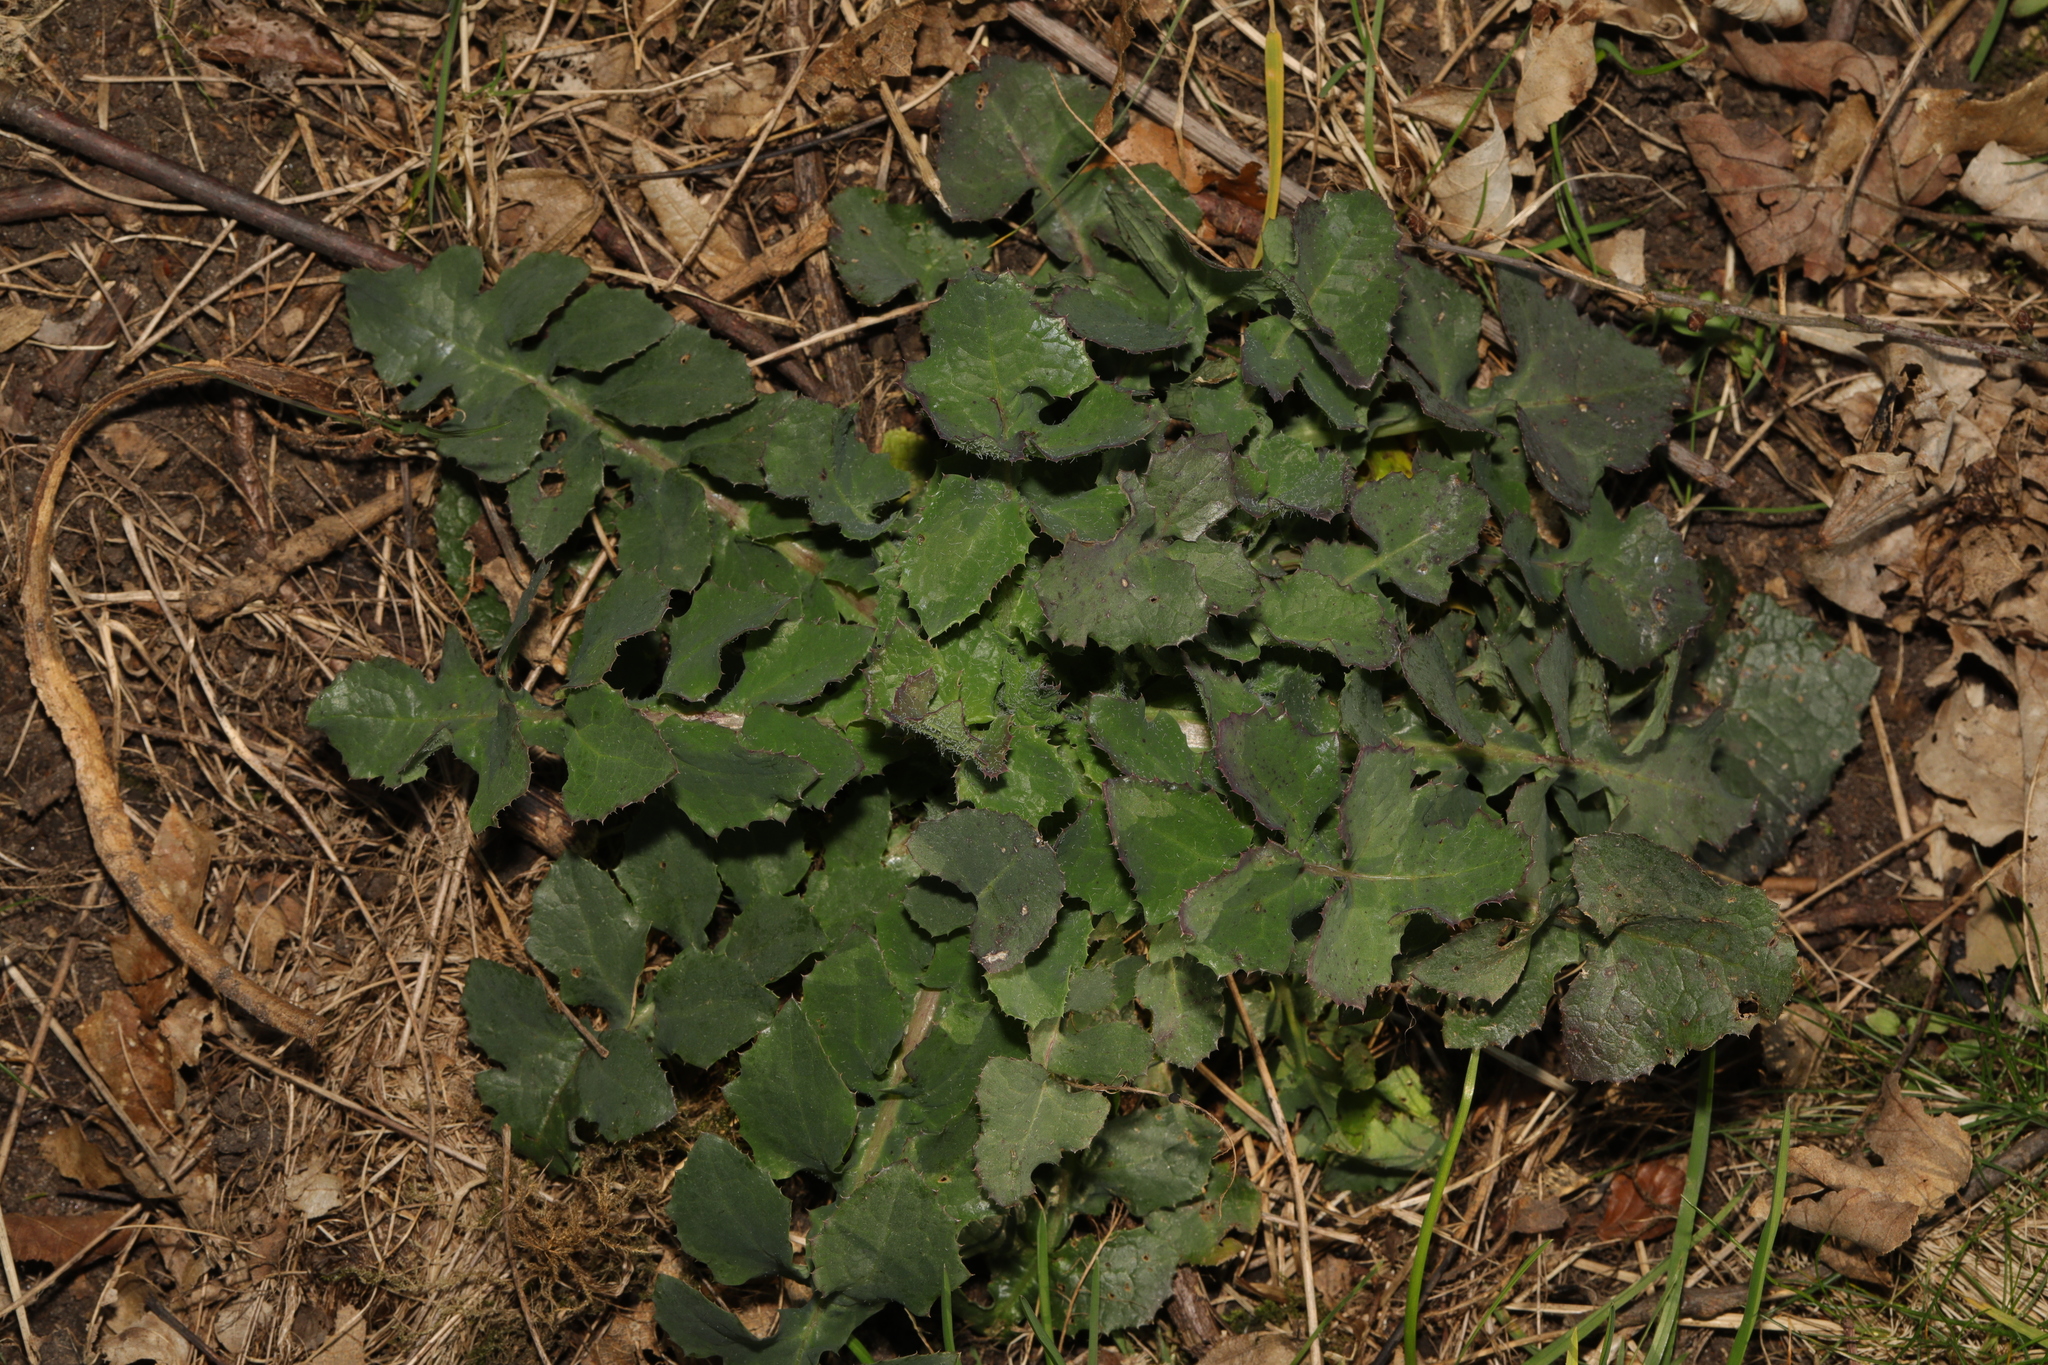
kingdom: Plantae
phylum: Tracheophyta
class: Magnoliopsida
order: Asterales
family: Asteraceae
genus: Sonchus
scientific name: Sonchus oleraceus
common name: Common sowthistle
